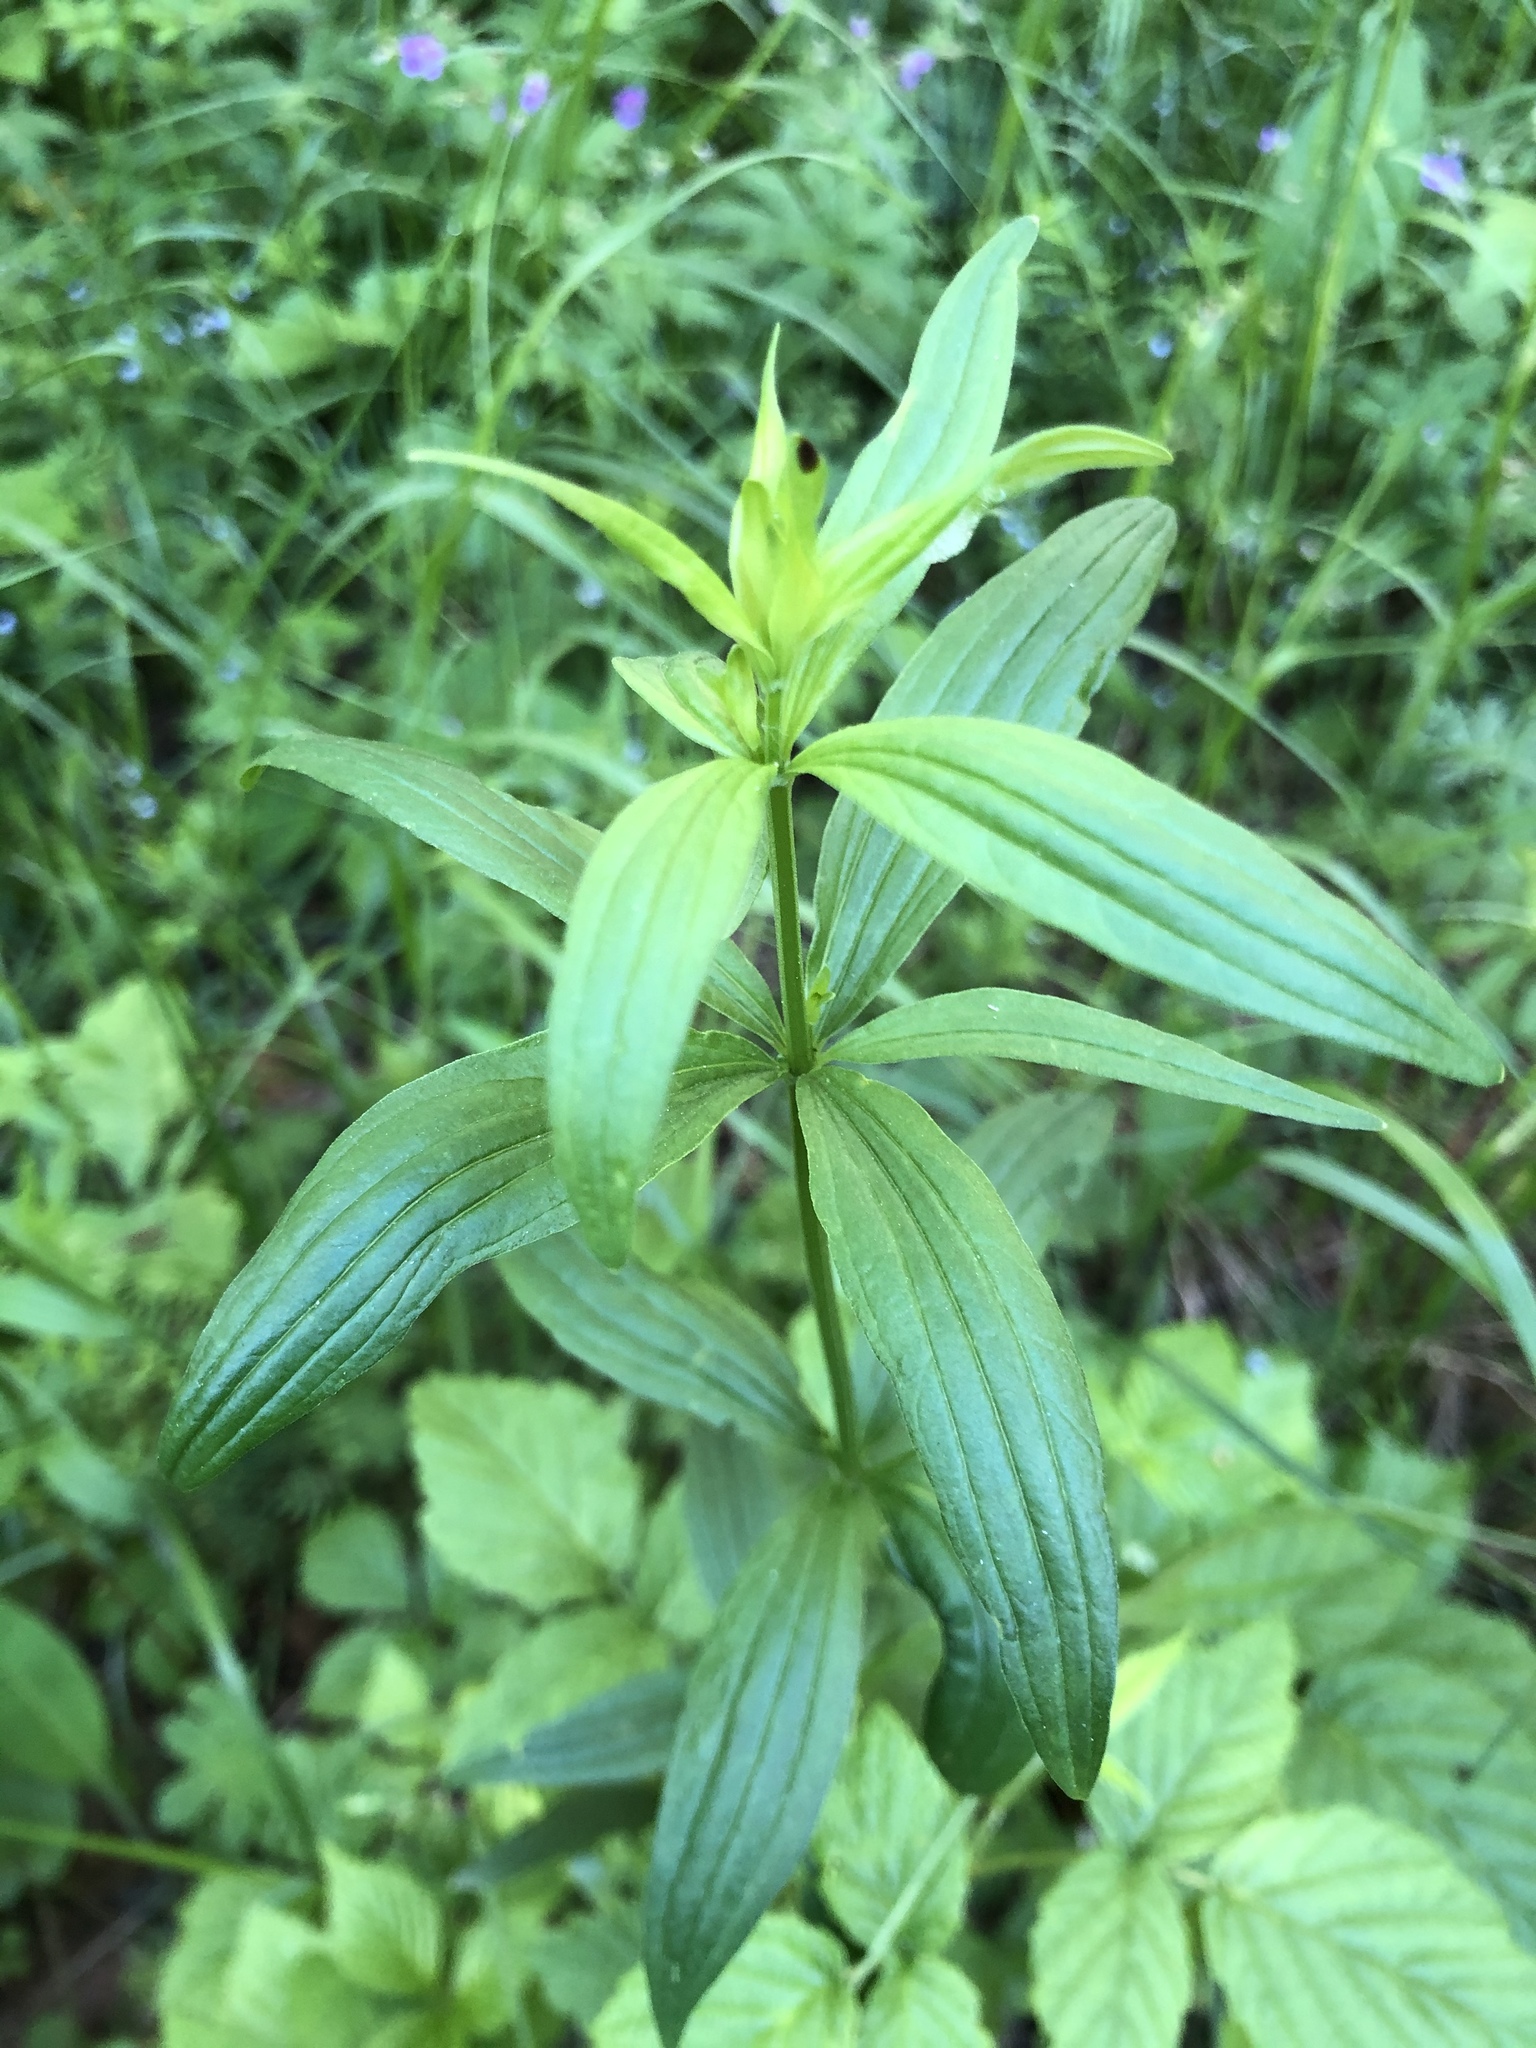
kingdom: Plantae
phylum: Tracheophyta
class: Magnoliopsida
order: Gentianales
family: Rubiaceae
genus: Galium
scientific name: Galium pseudoboreale
